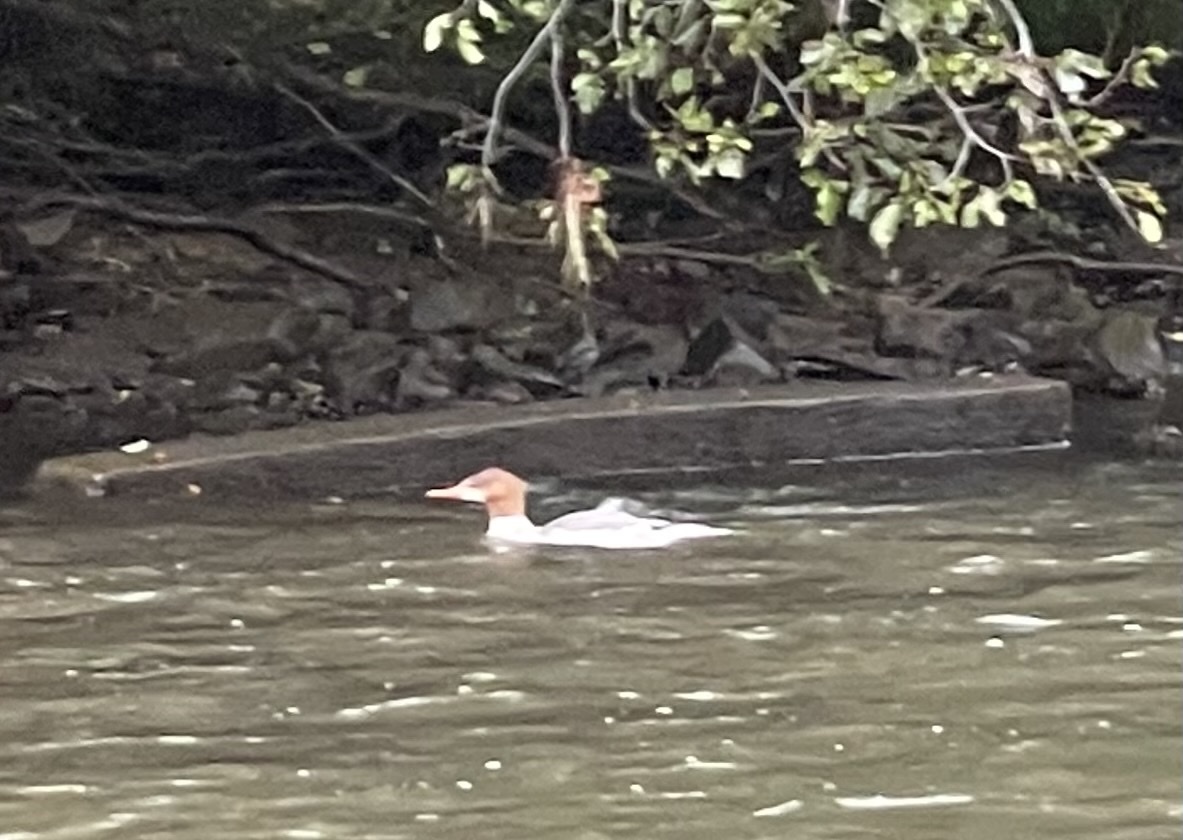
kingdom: Animalia
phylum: Chordata
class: Aves
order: Anseriformes
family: Anatidae
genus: Mergus
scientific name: Mergus merganser
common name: Common merganser
